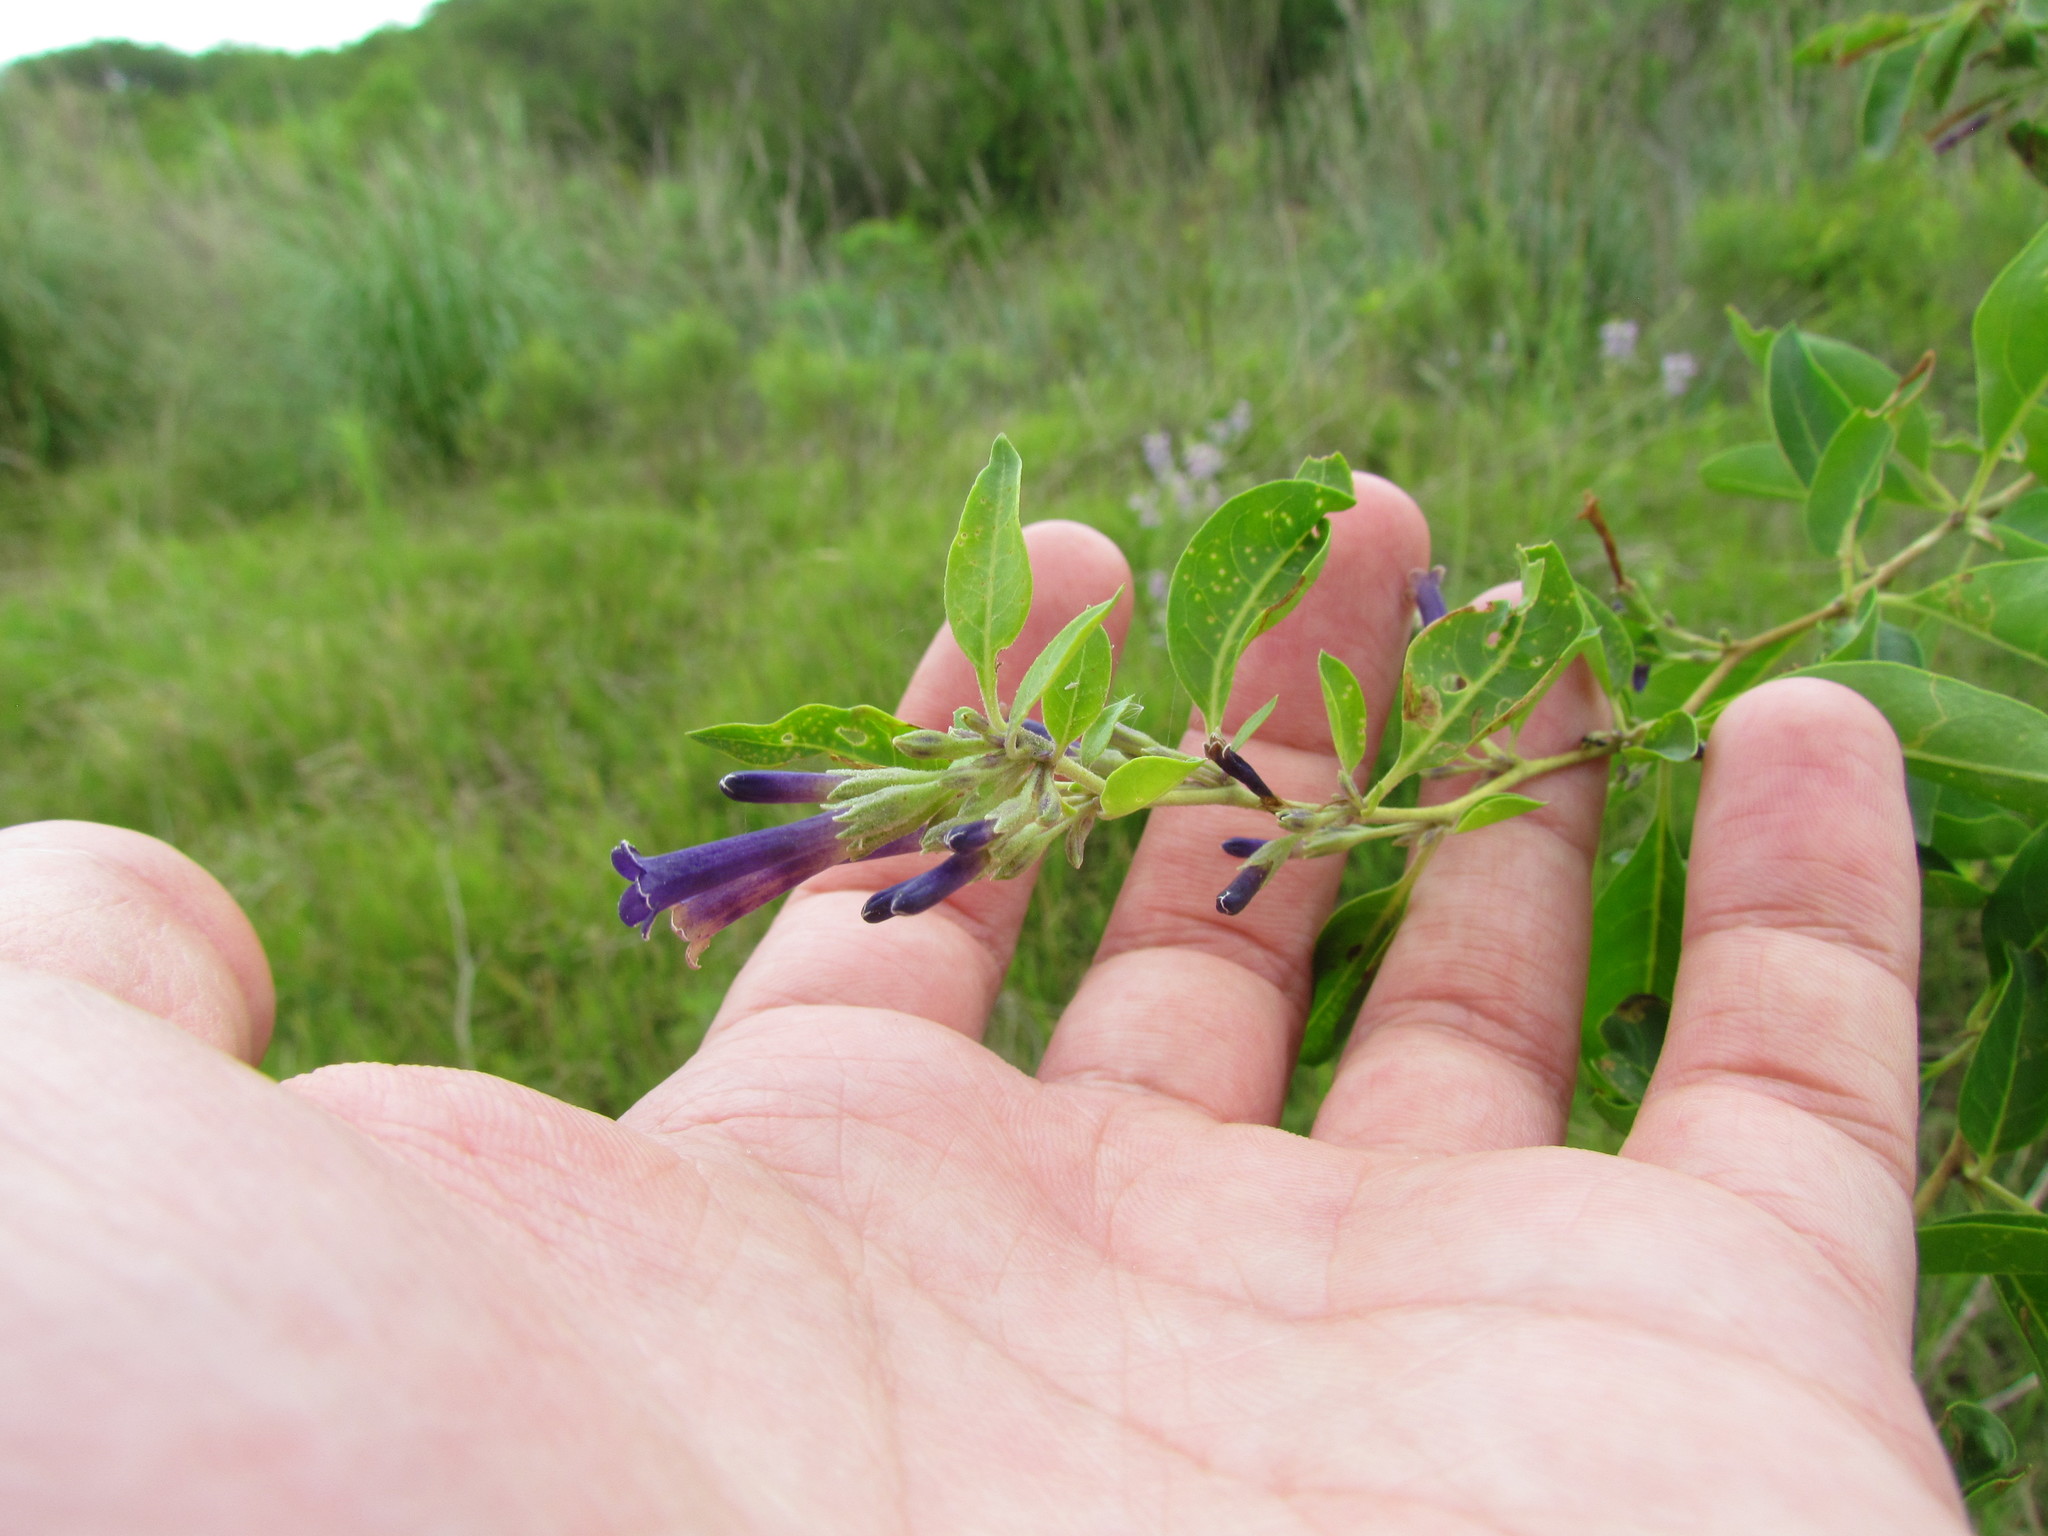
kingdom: Plantae
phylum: Tracheophyta
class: Magnoliopsida
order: Solanales
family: Solanaceae
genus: Lycium
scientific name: Lycium cestroides
